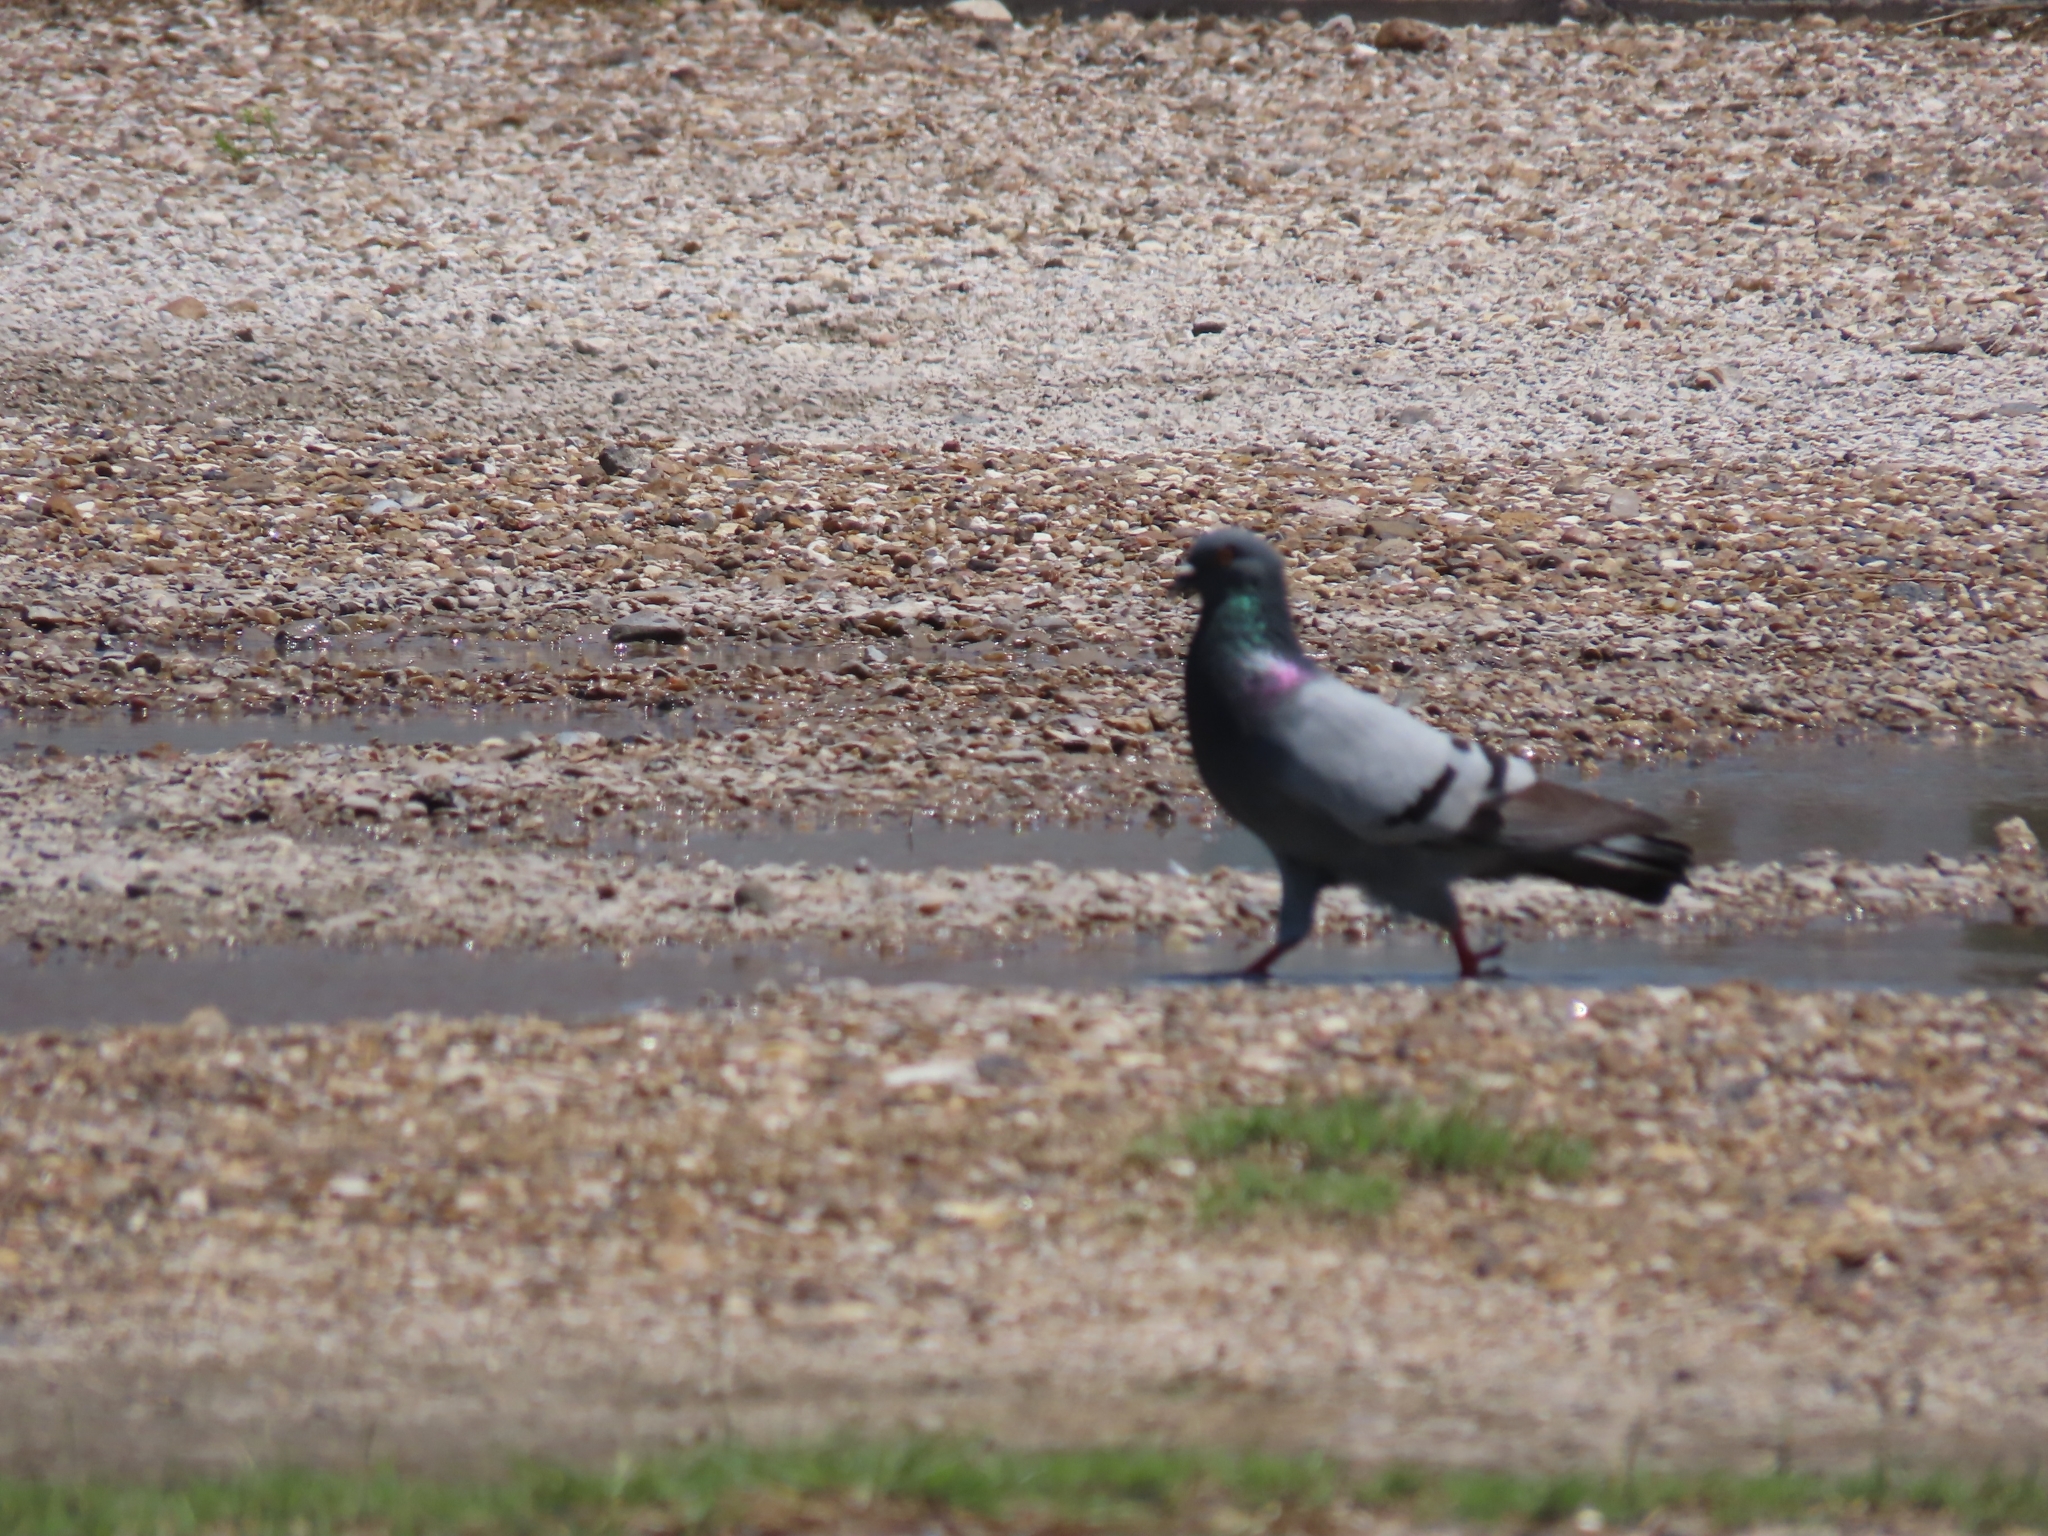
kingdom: Animalia
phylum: Chordata
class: Aves
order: Columbiformes
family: Columbidae
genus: Columba
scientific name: Columba livia
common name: Rock pigeon
